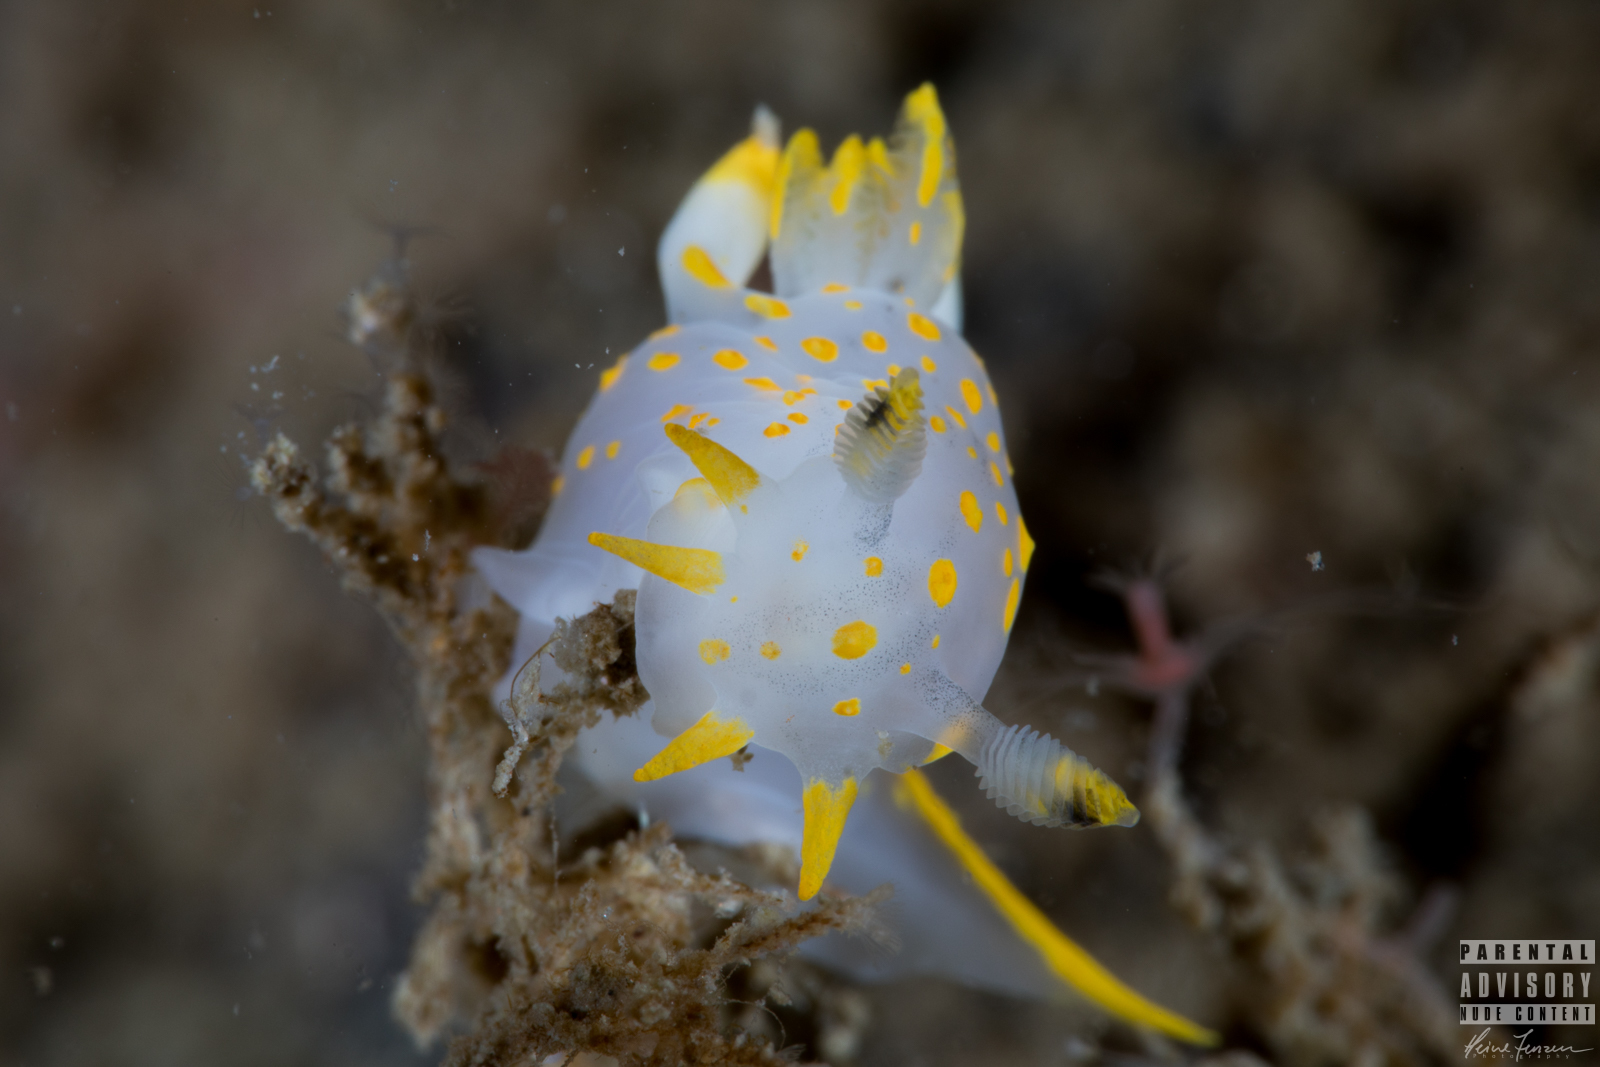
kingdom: Animalia
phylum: Mollusca
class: Gastropoda
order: Nudibranchia
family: Polyceridae
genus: Polycera
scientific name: Polycera quadrilineata
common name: Four-striped polycera
